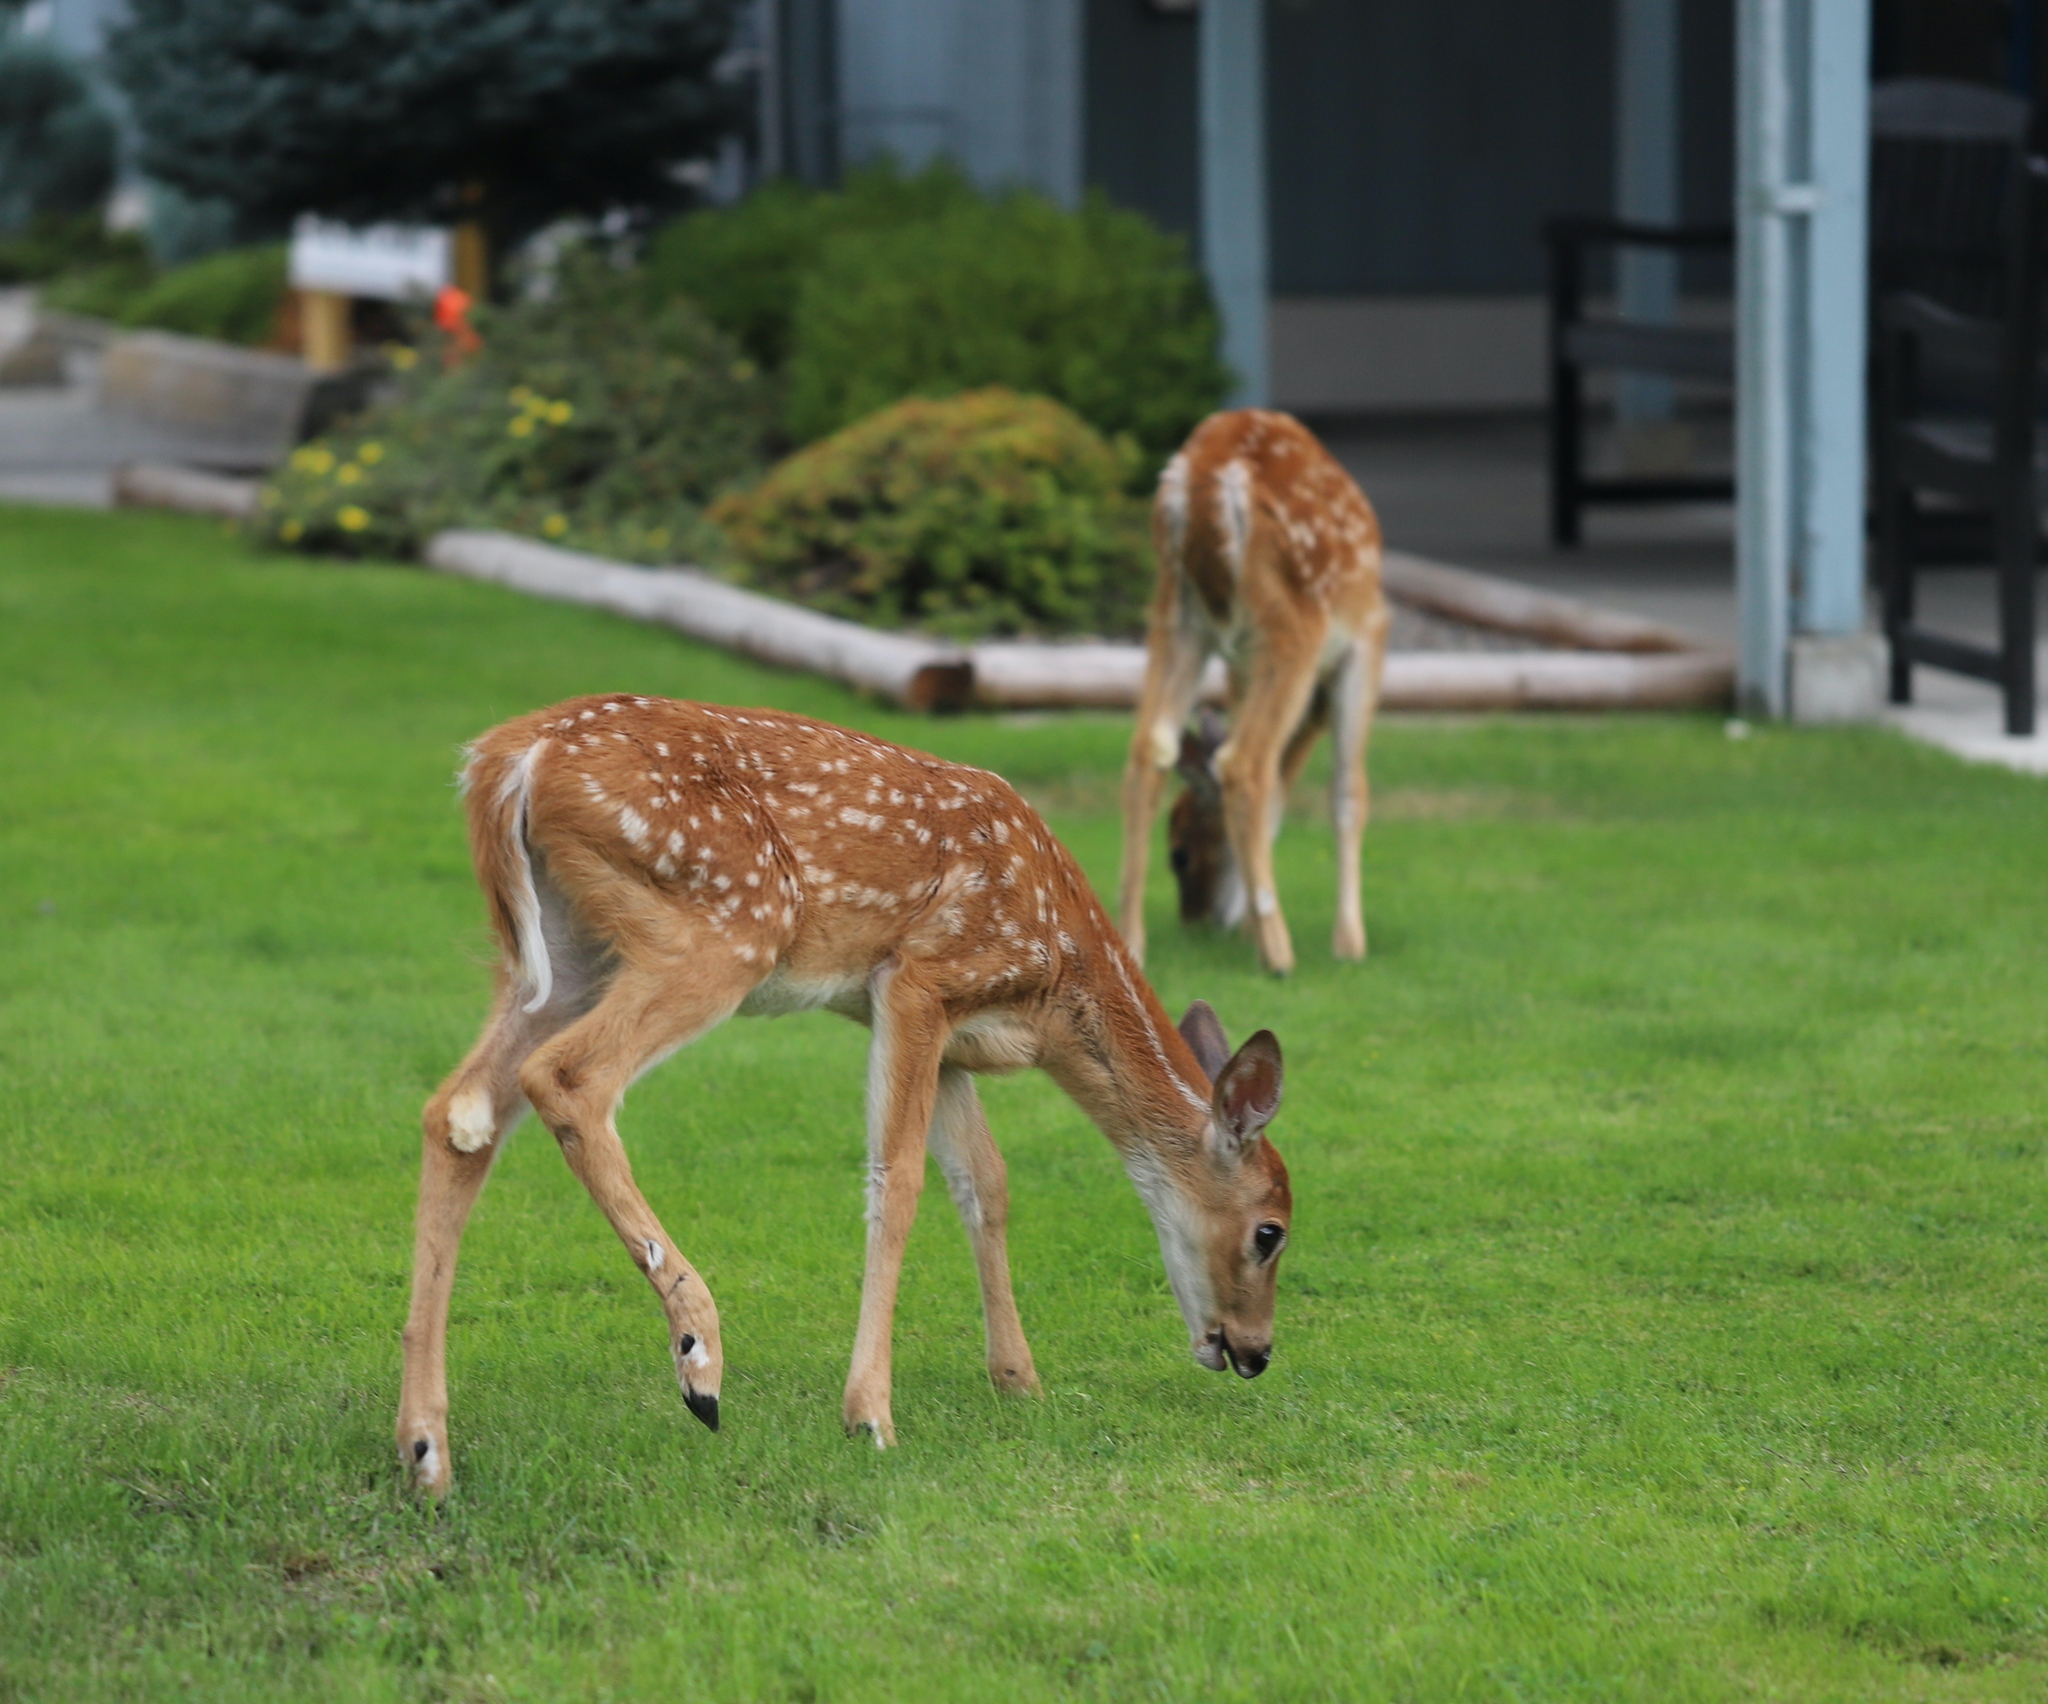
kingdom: Animalia
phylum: Chordata
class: Mammalia
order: Artiodactyla
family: Cervidae
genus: Odocoileus
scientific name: Odocoileus virginianus
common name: White-tailed deer
